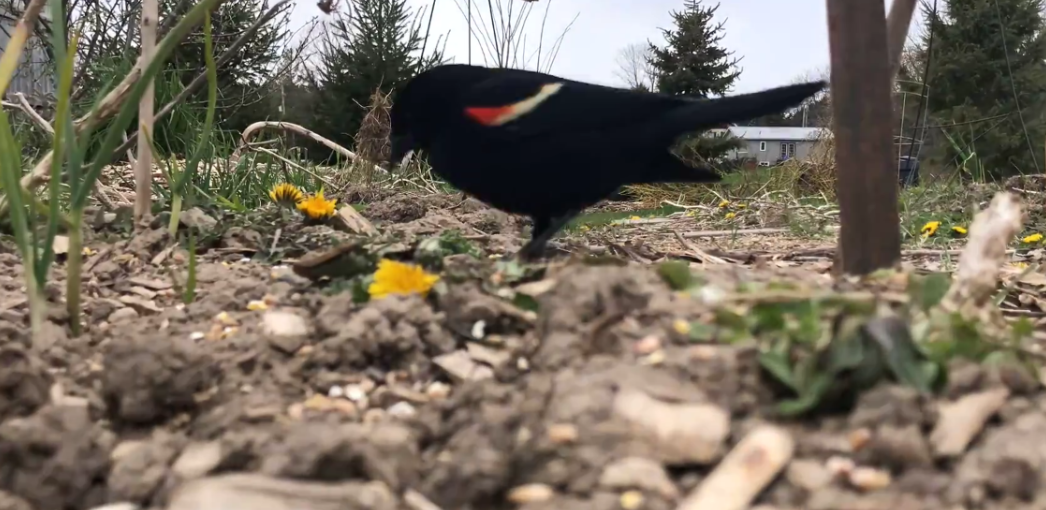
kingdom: Animalia
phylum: Chordata
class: Aves
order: Passeriformes
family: Icteridae
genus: Agelaius
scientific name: Agelaius phoeniceus
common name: Red-winged blackbird
